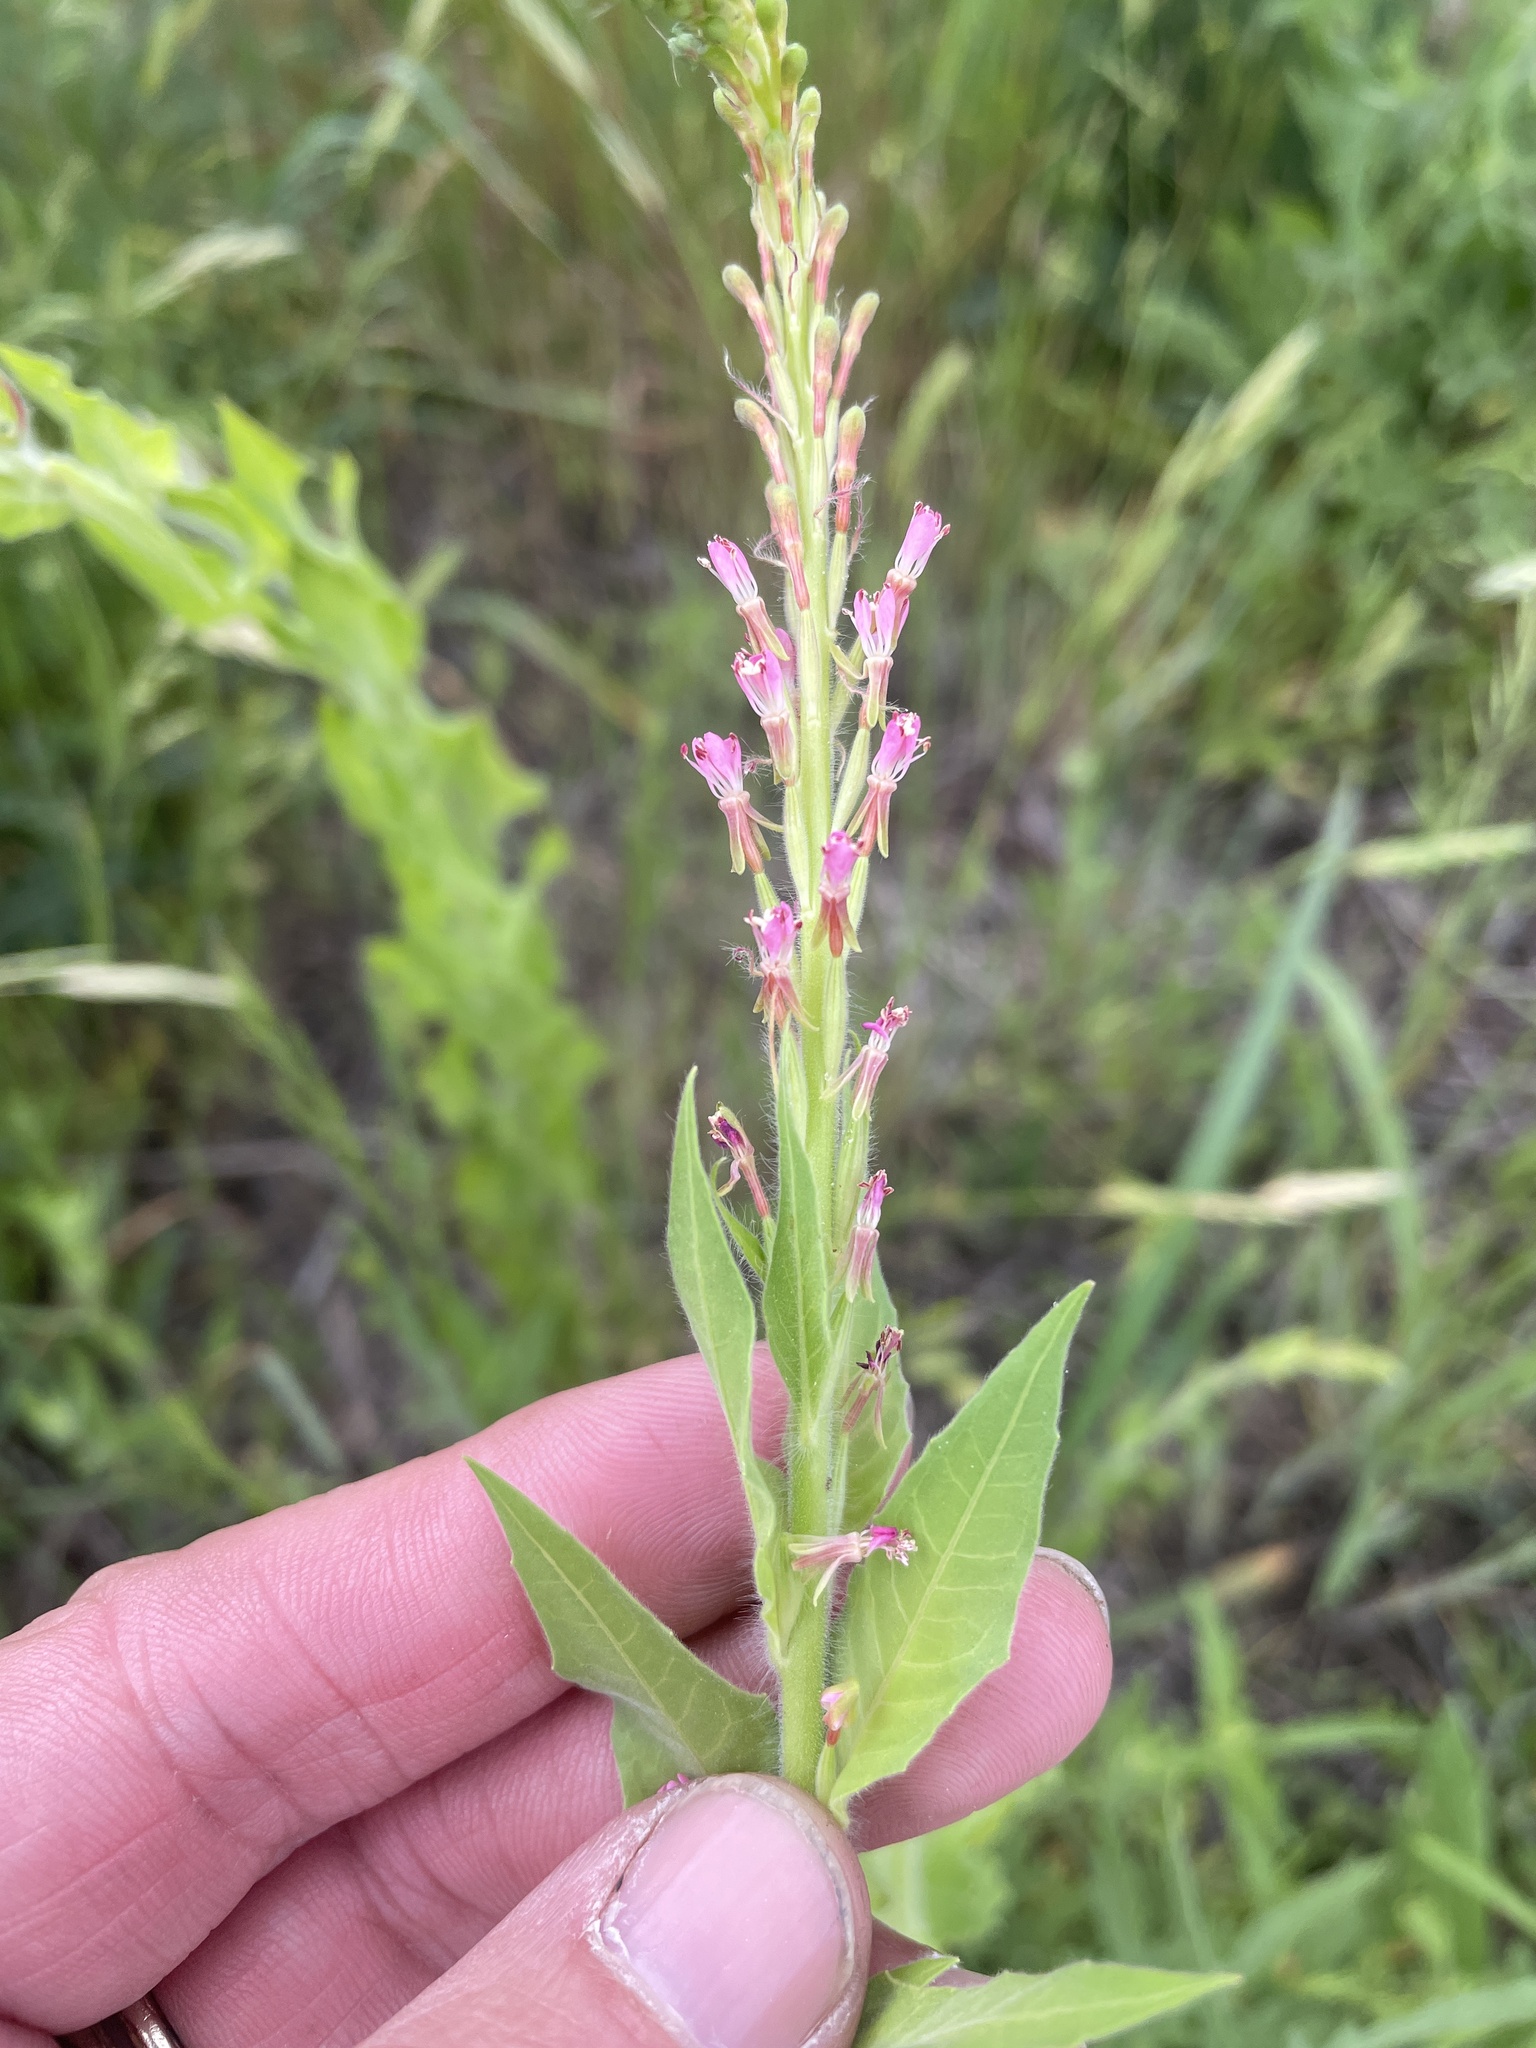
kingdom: Plantae
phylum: Tracheophyta
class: Magnoliopsida
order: Myrtales
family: Onagraceae
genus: Oenothera
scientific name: Oenothera curtiflora
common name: Velvetweed
